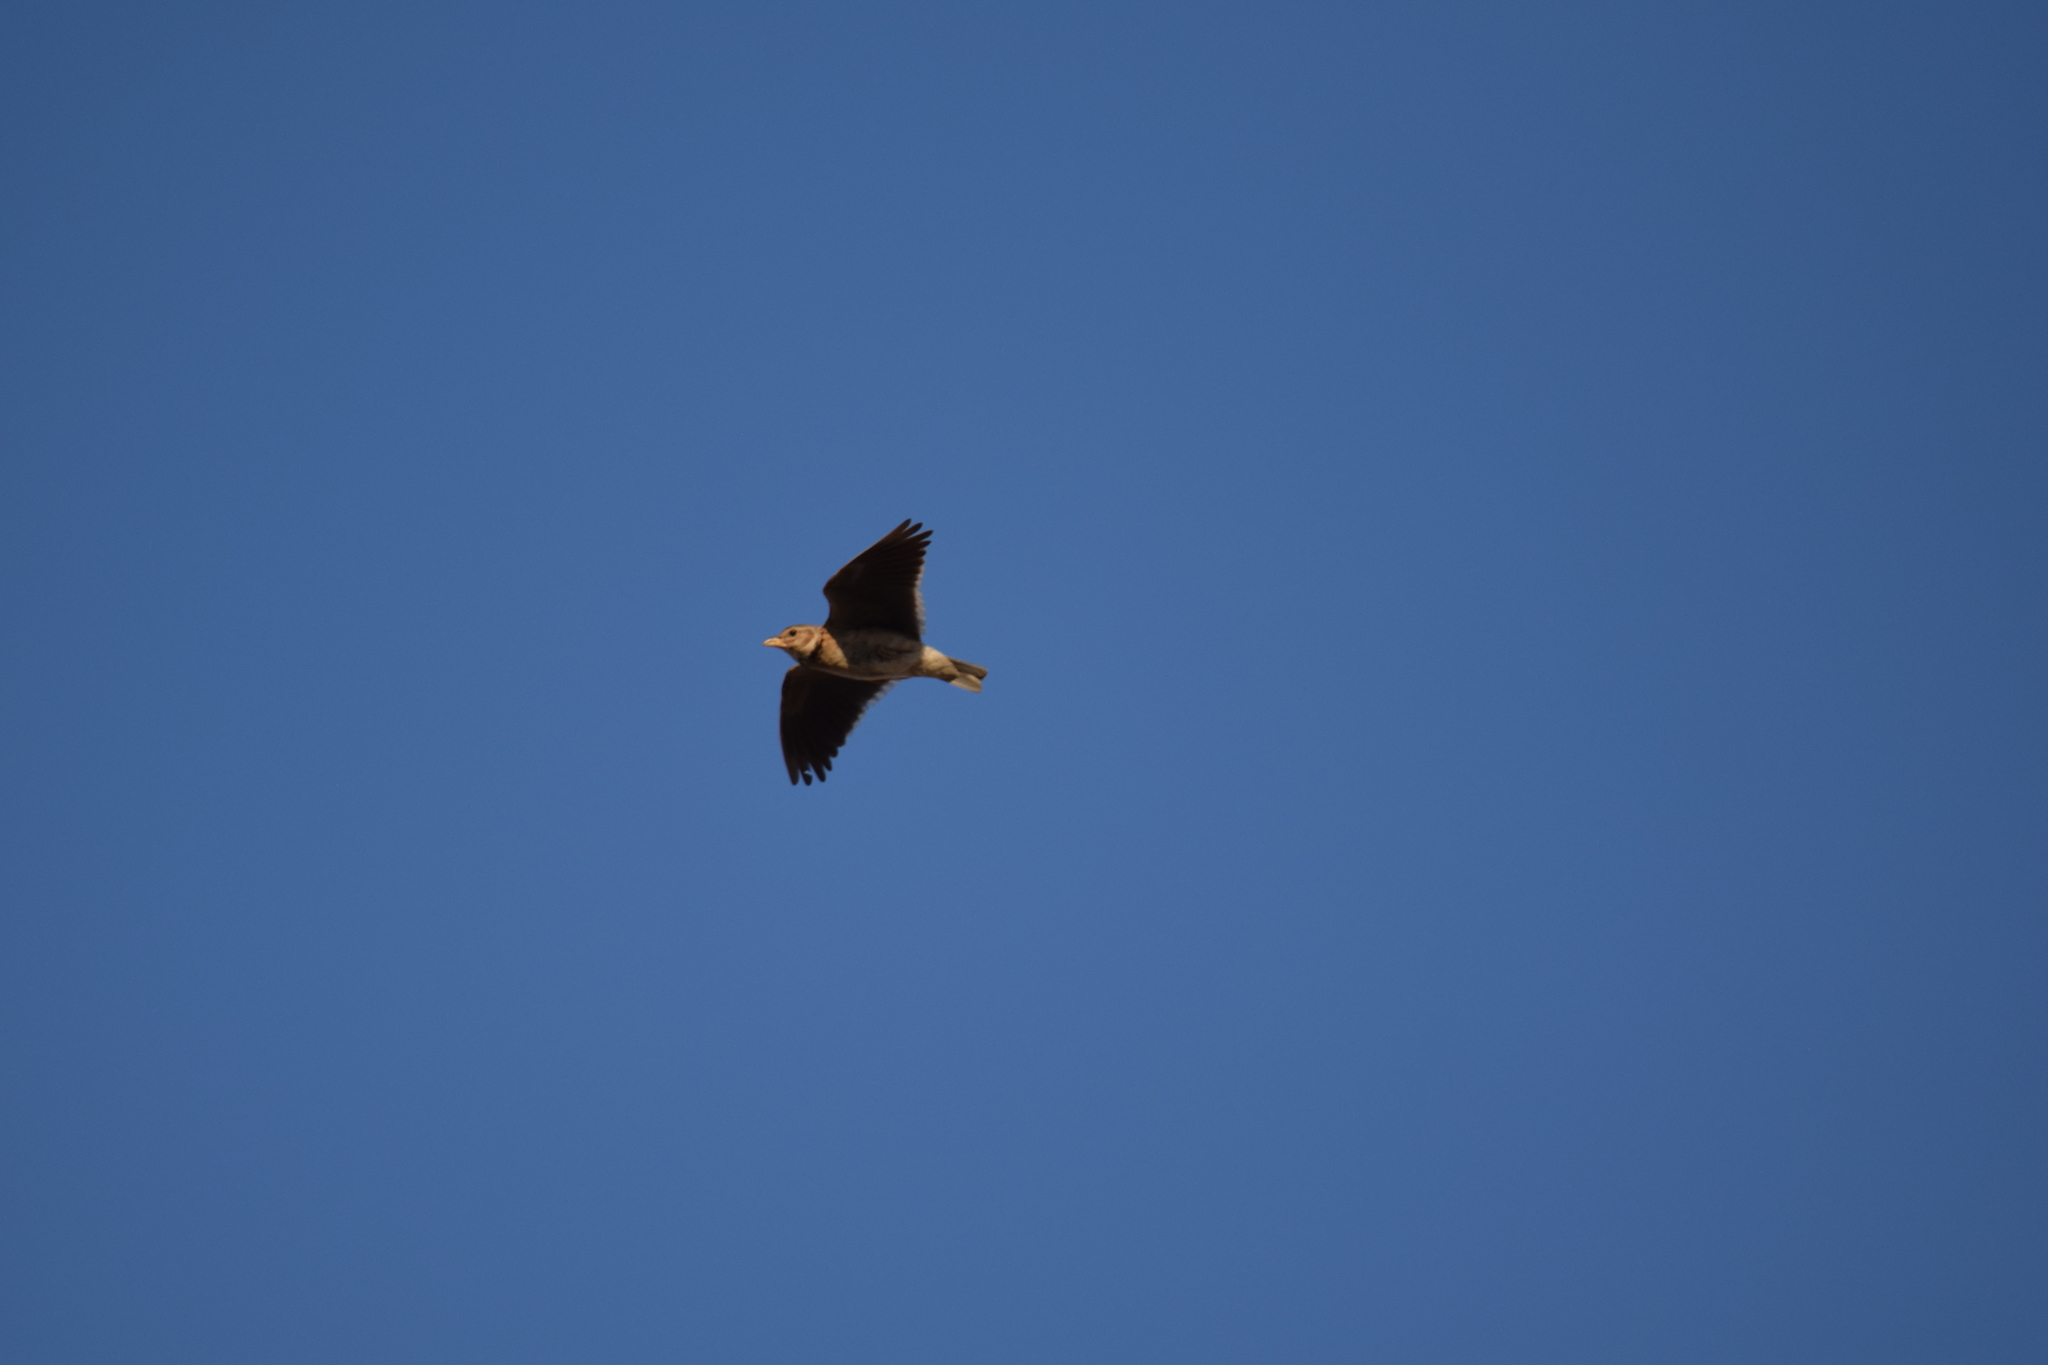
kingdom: Animalia
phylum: Chordata
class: Aves
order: Passeriformes
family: Alaudidae
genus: Melanocorypha
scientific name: Melanocorypha calandra
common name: Calandra lark
